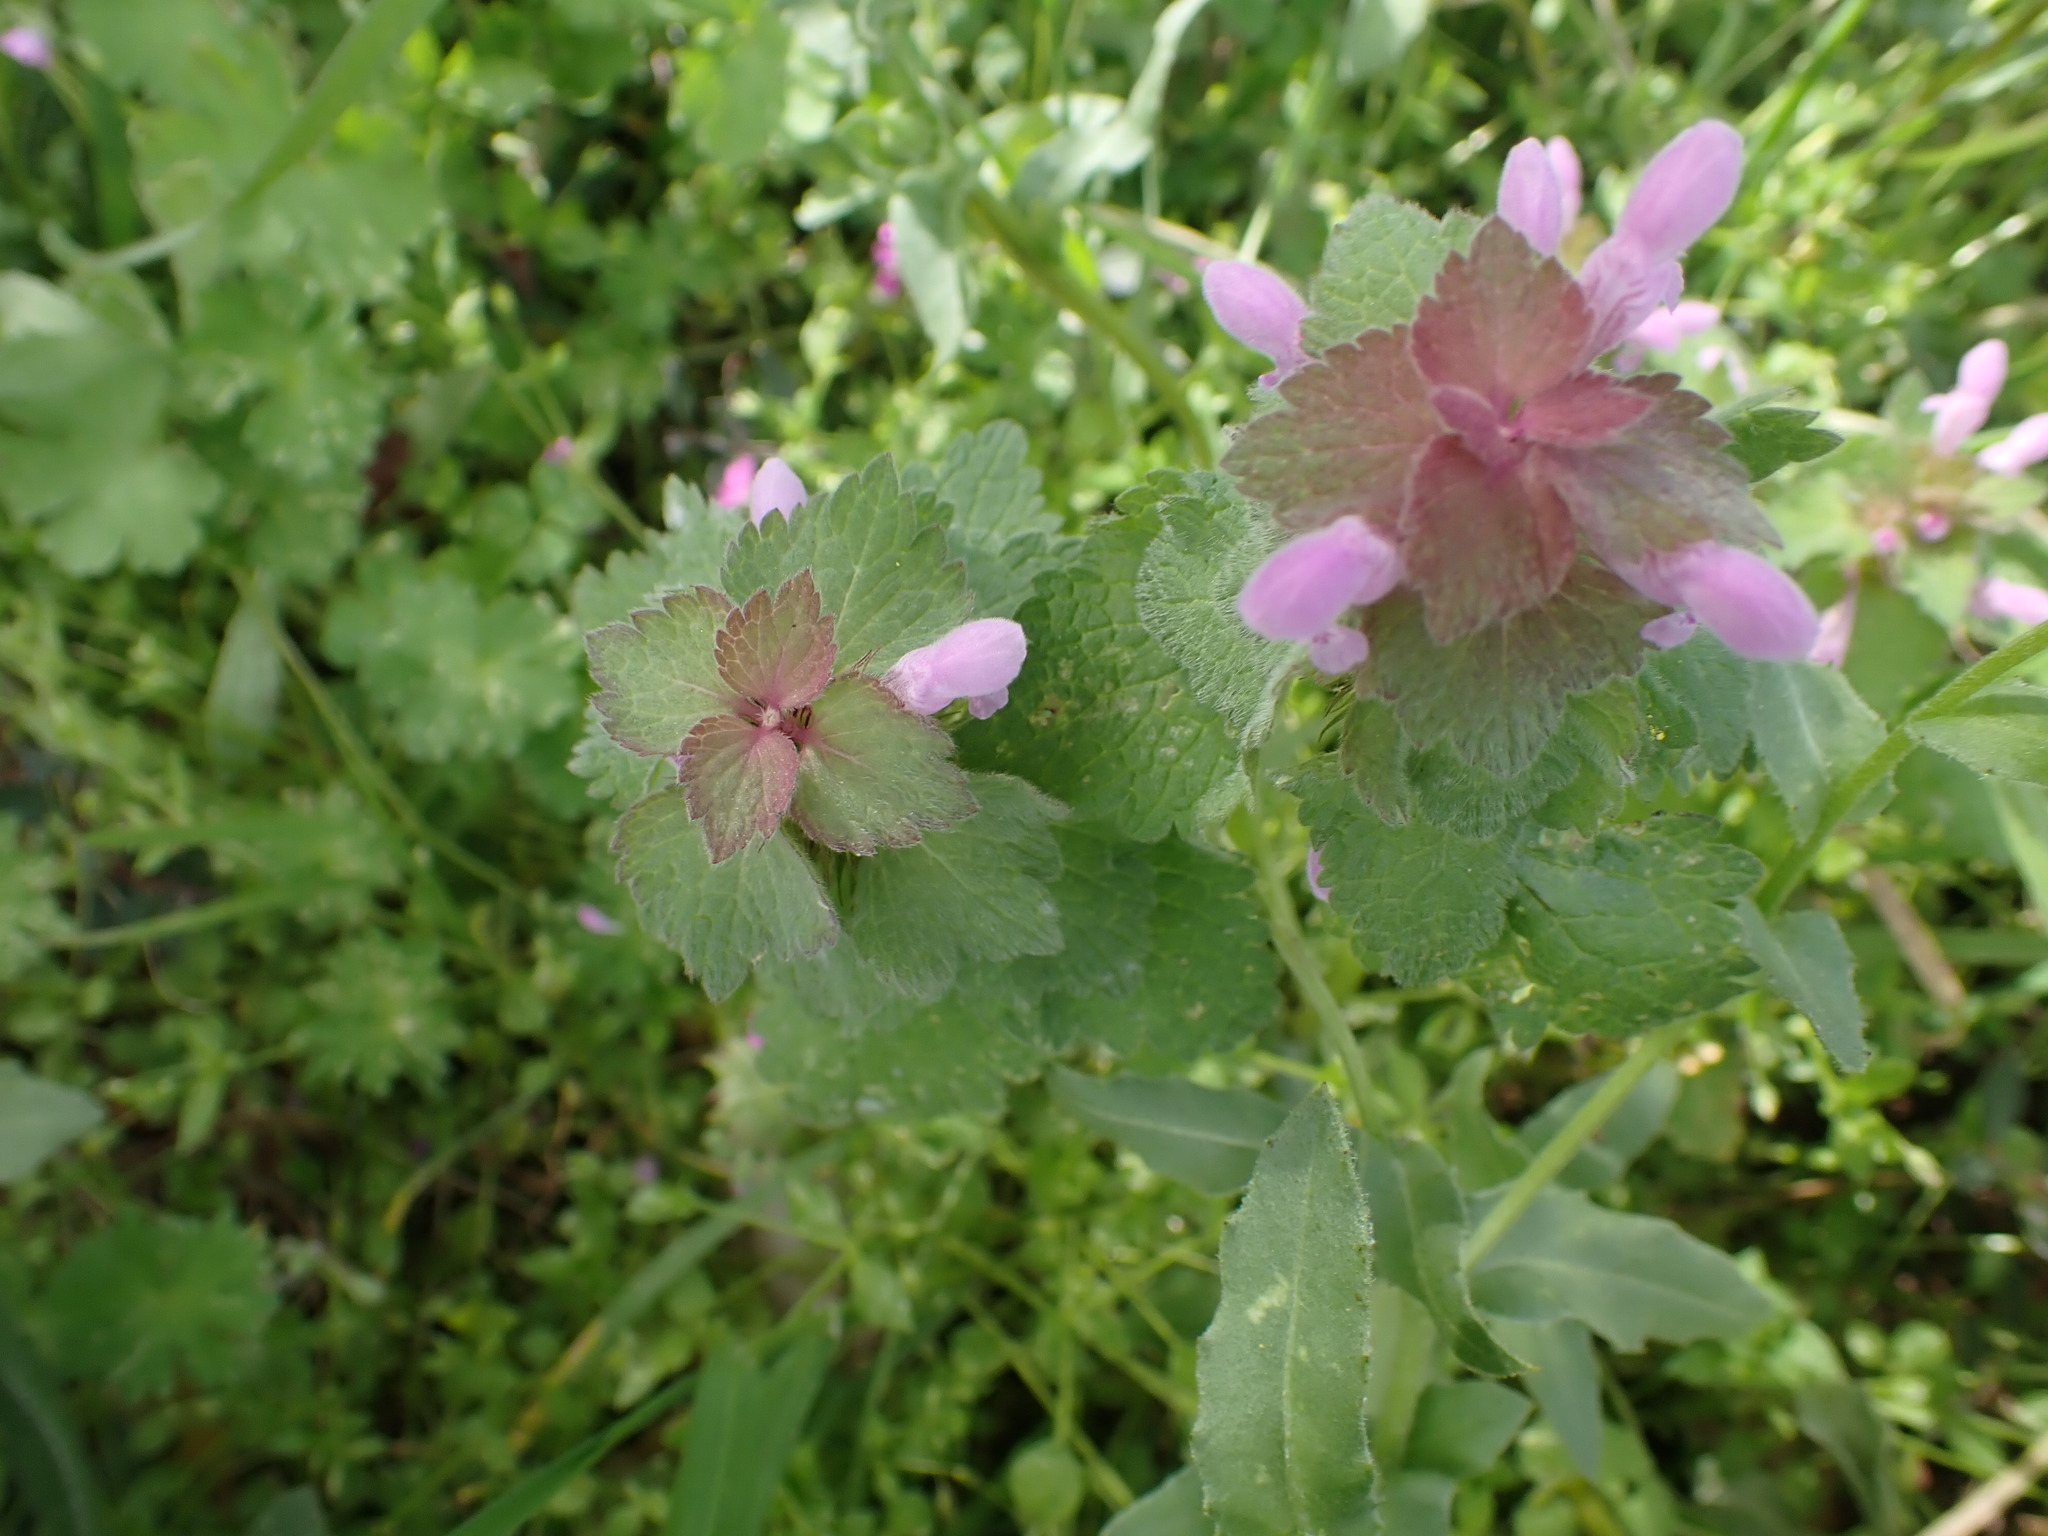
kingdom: Plantae
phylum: Tracheophyta
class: Magnoliopsida
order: Lamiales
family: Lamiaceae
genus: Lamium
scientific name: Lamium purpureum
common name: Red dead-nettle
